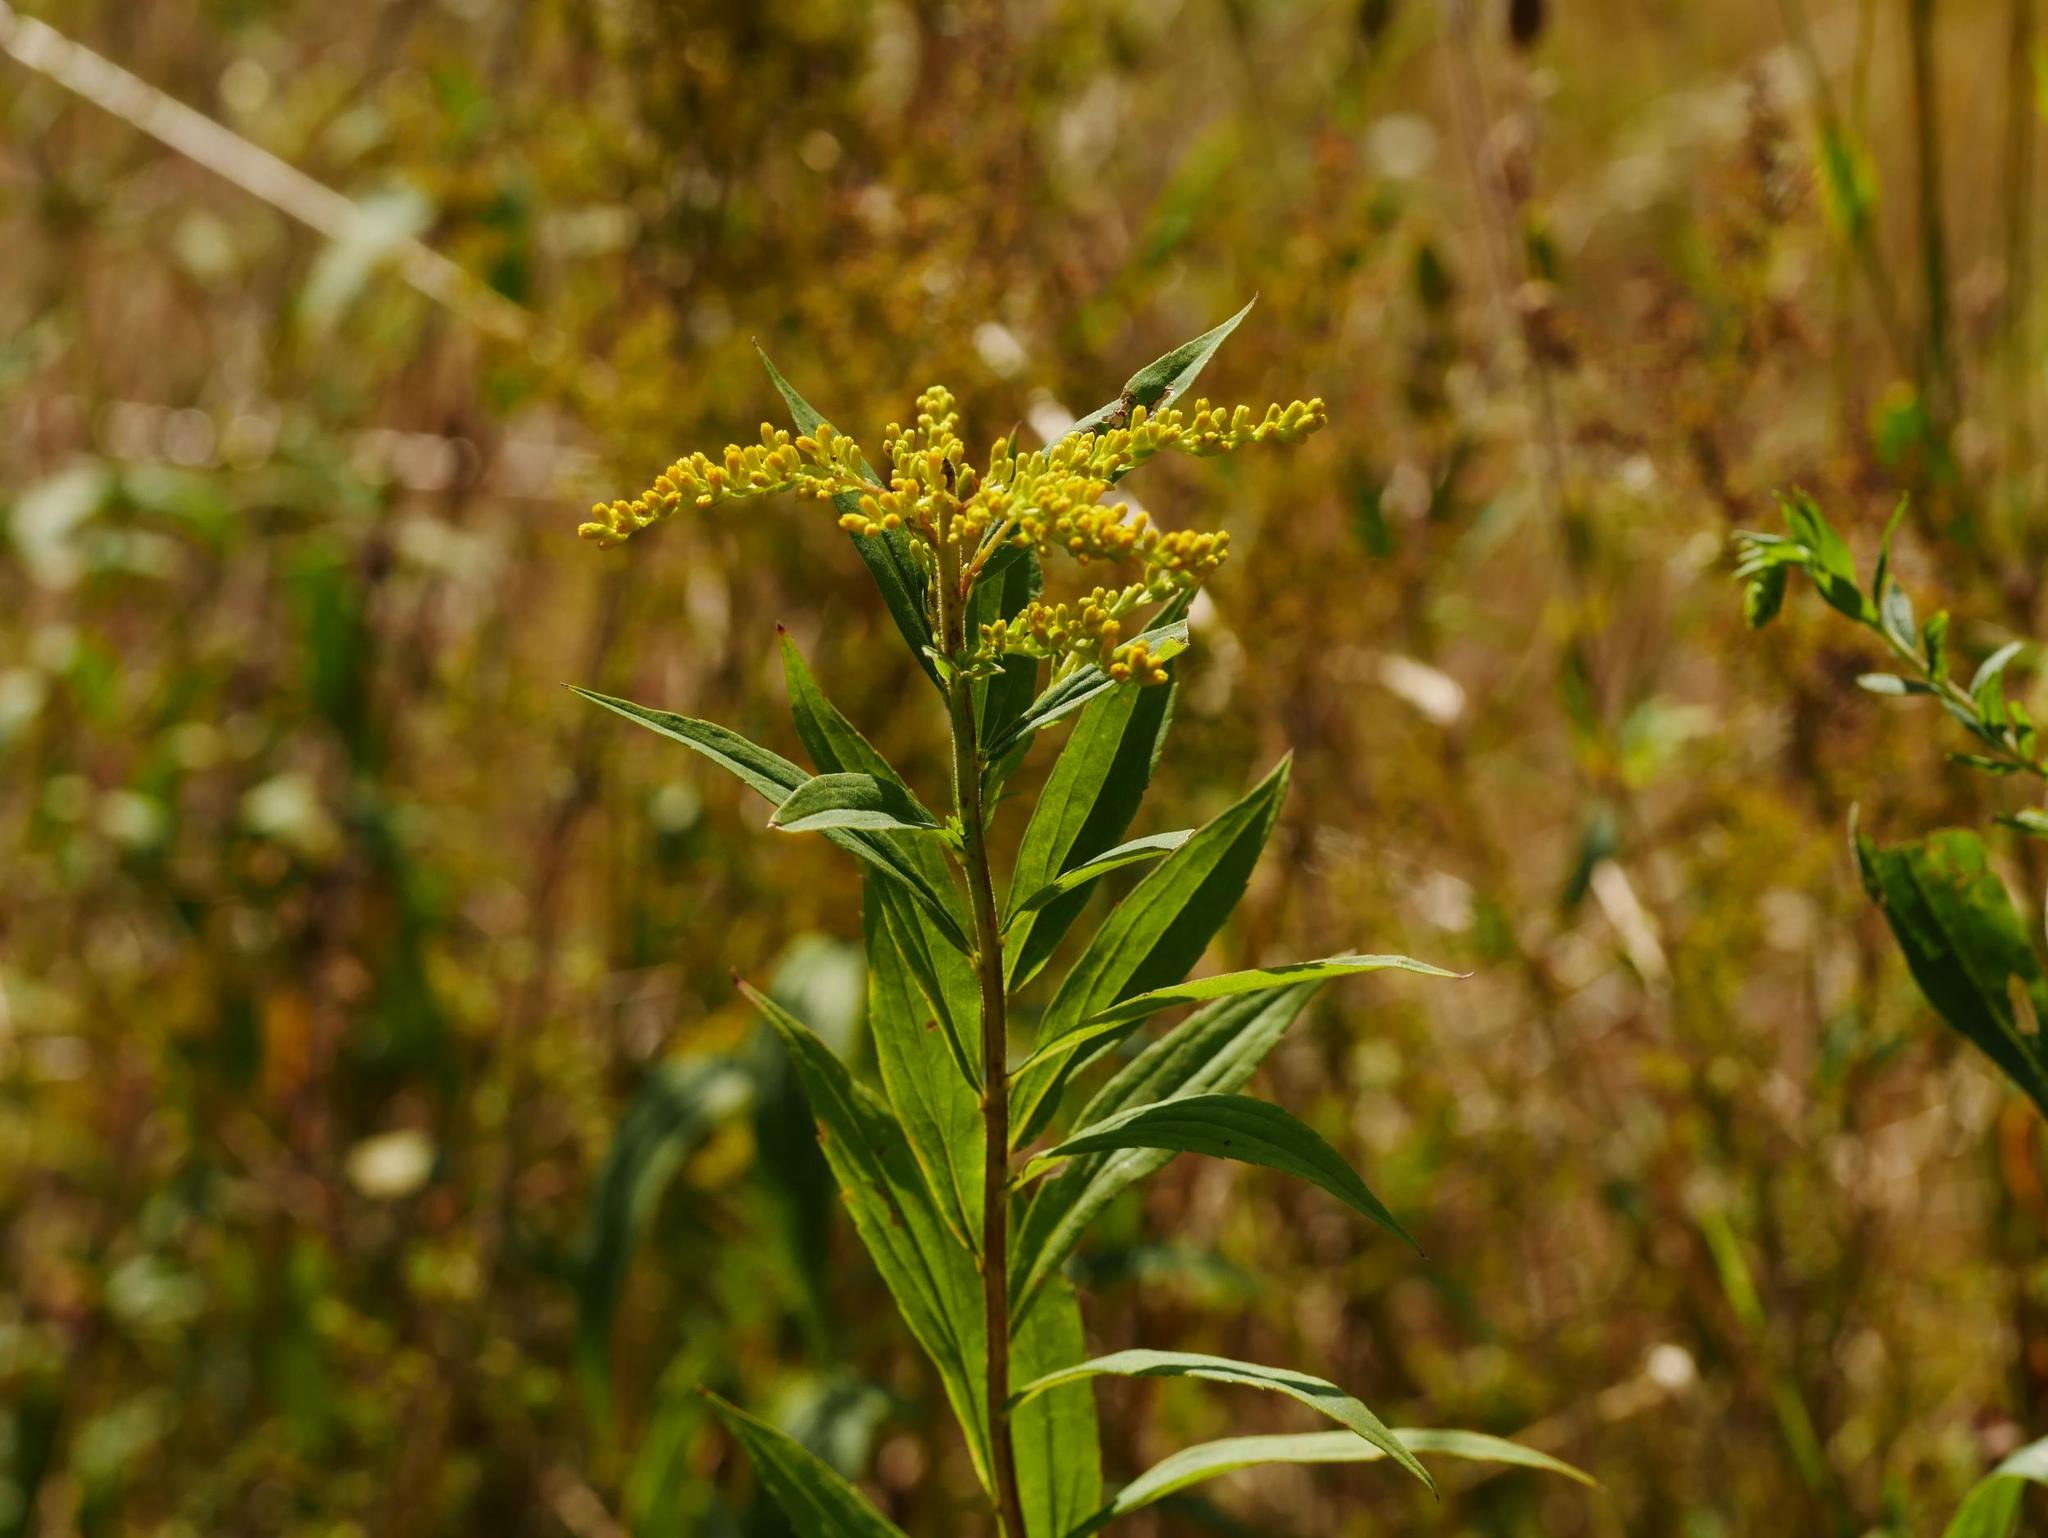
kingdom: Plantae
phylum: Tracheophyta
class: Magnoliopsida
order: Asterales
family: Asteraceae
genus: Solidago
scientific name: Solidago canadensis
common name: Canada goldenrod
